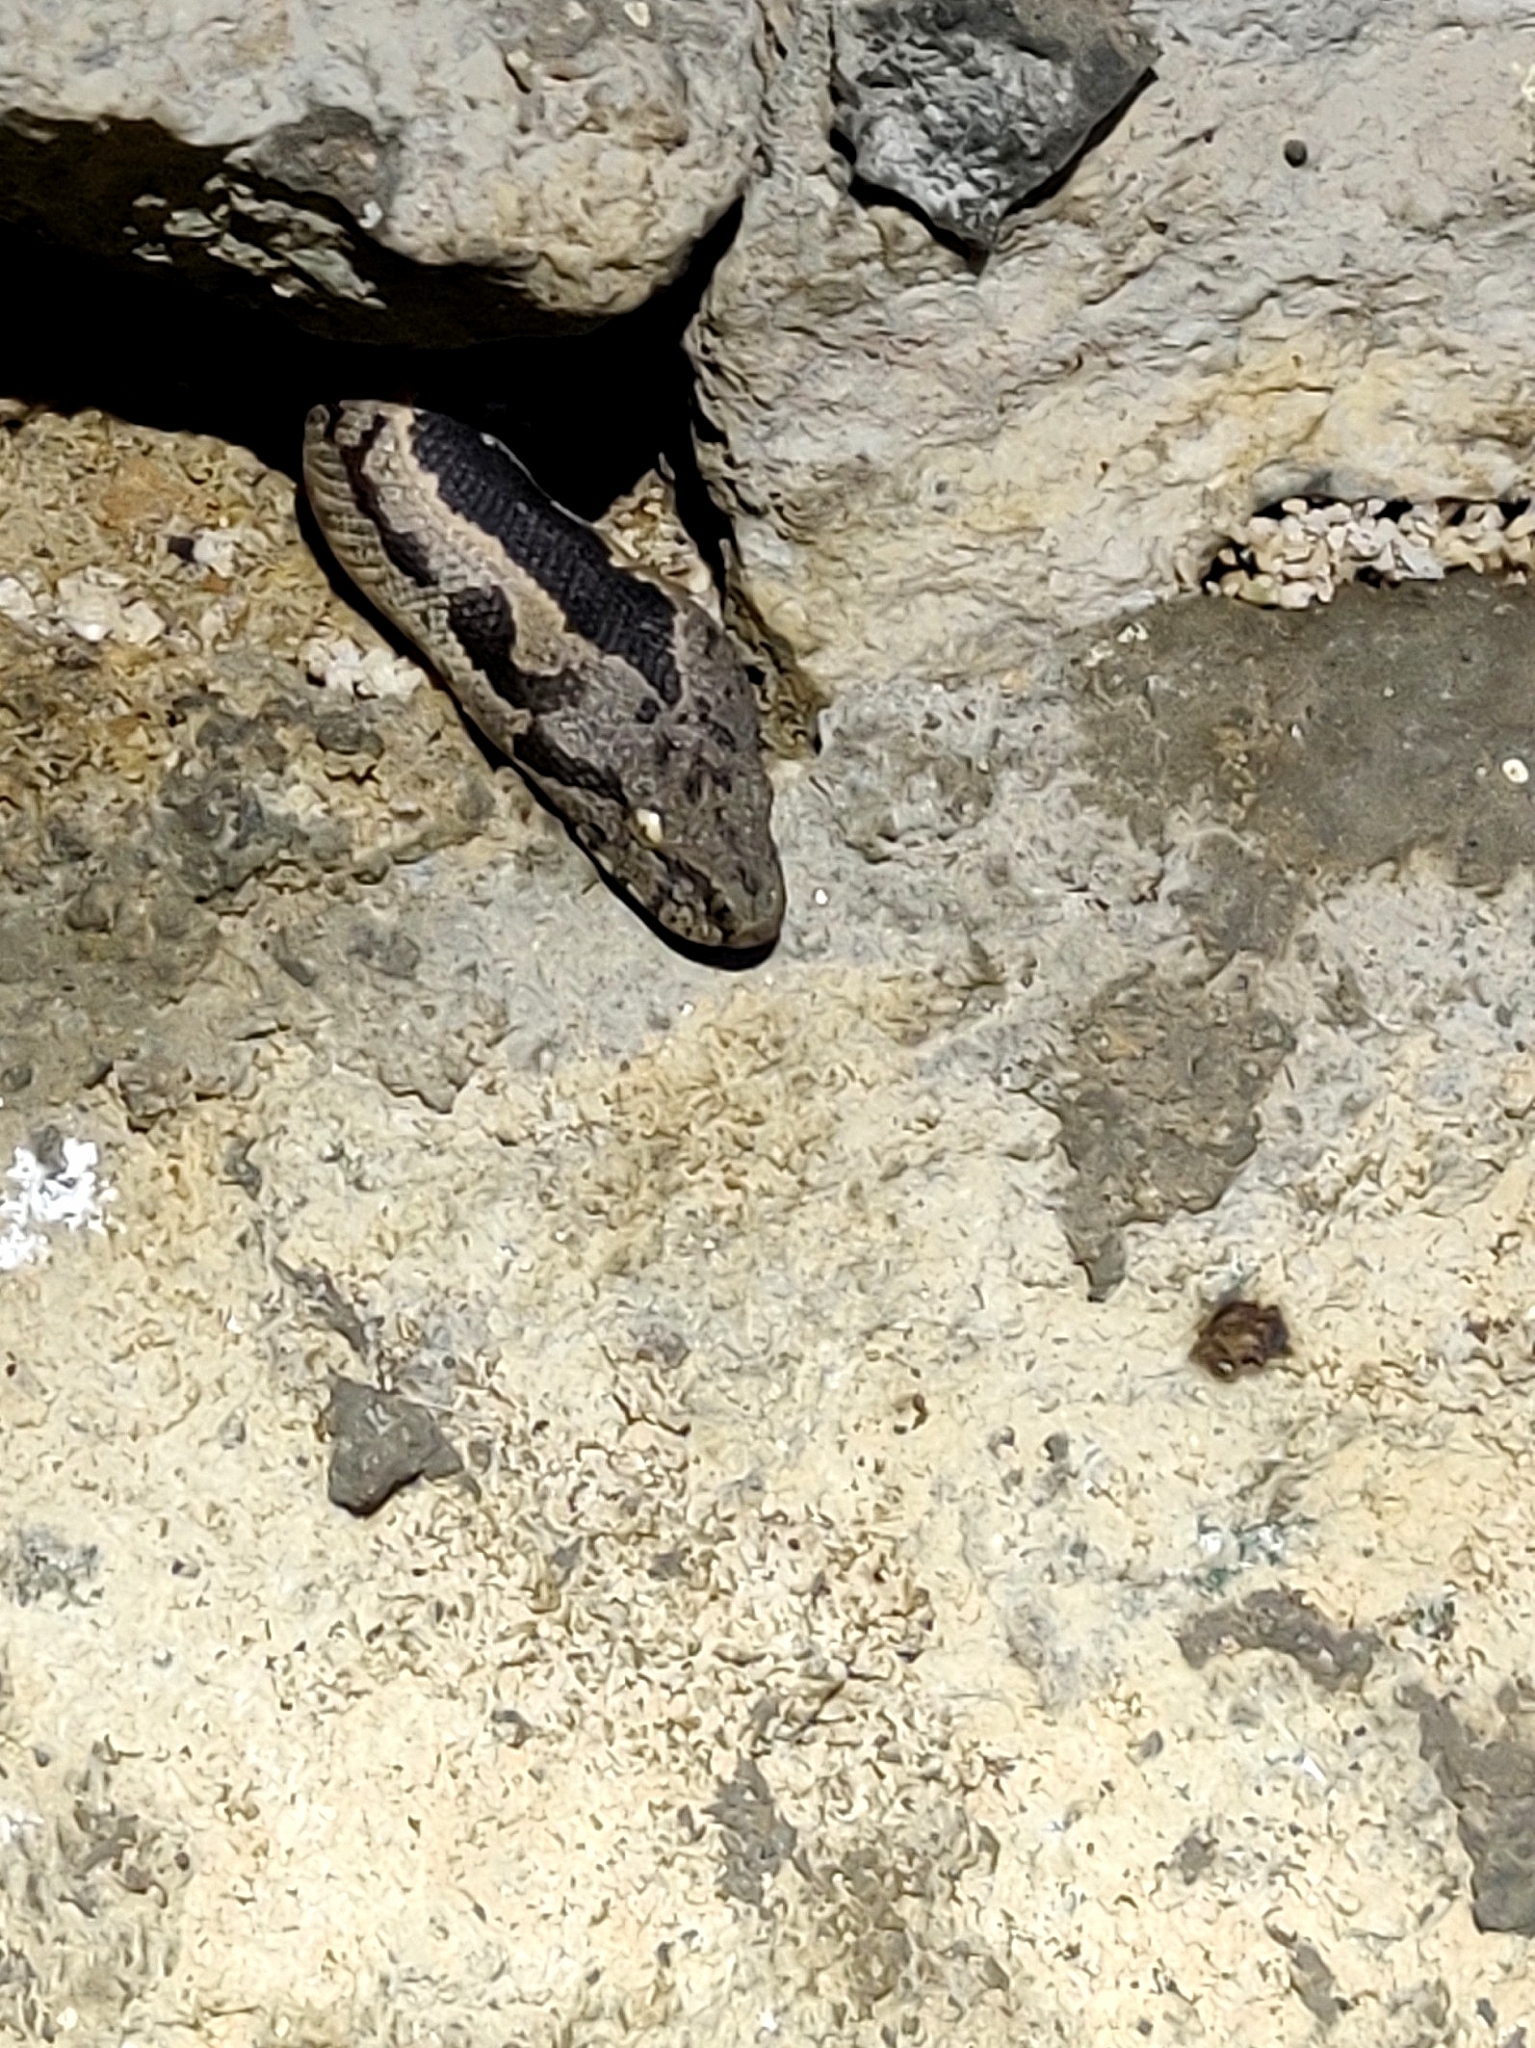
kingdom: Animalia
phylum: Chordata
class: Squamata
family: Boidae
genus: Eryx
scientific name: Eryx conicus
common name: Rough-tailed sand boa
